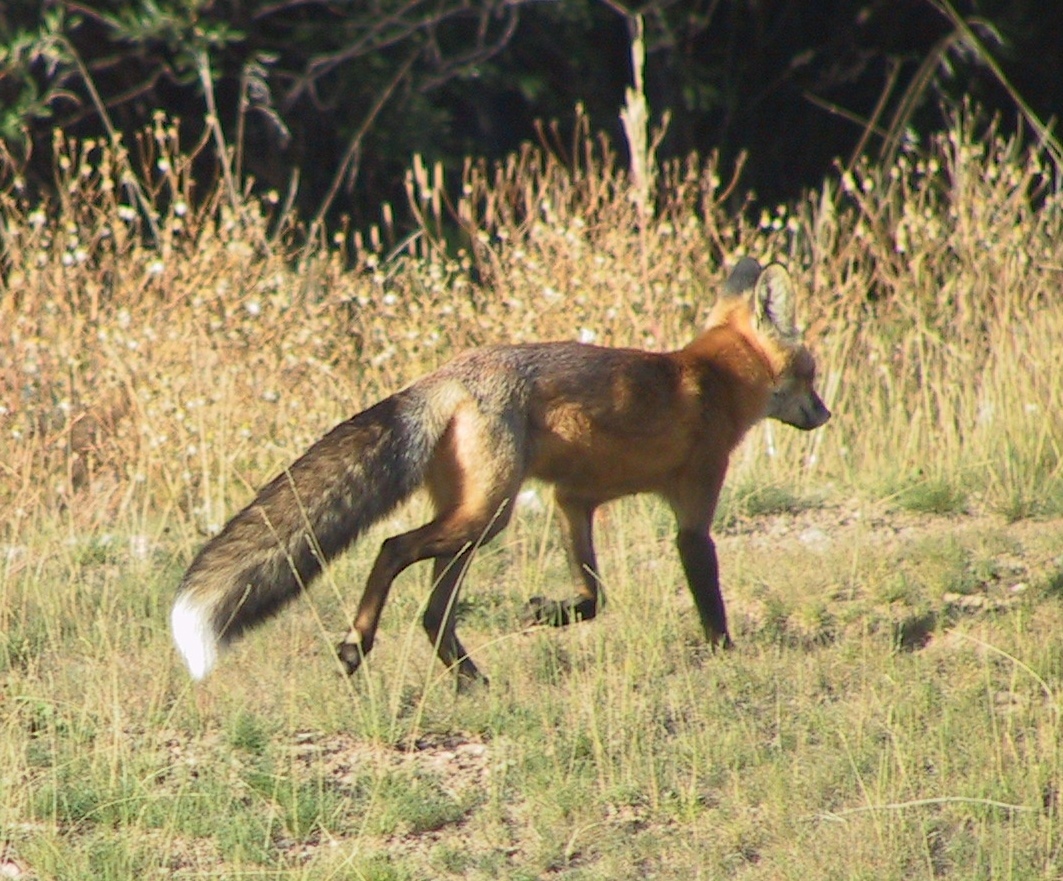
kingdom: Animalia
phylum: Chordata
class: Mammalia
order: Carnivora
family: Canidae
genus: Vulpes
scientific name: Vulpes vulpes
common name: Red fox
